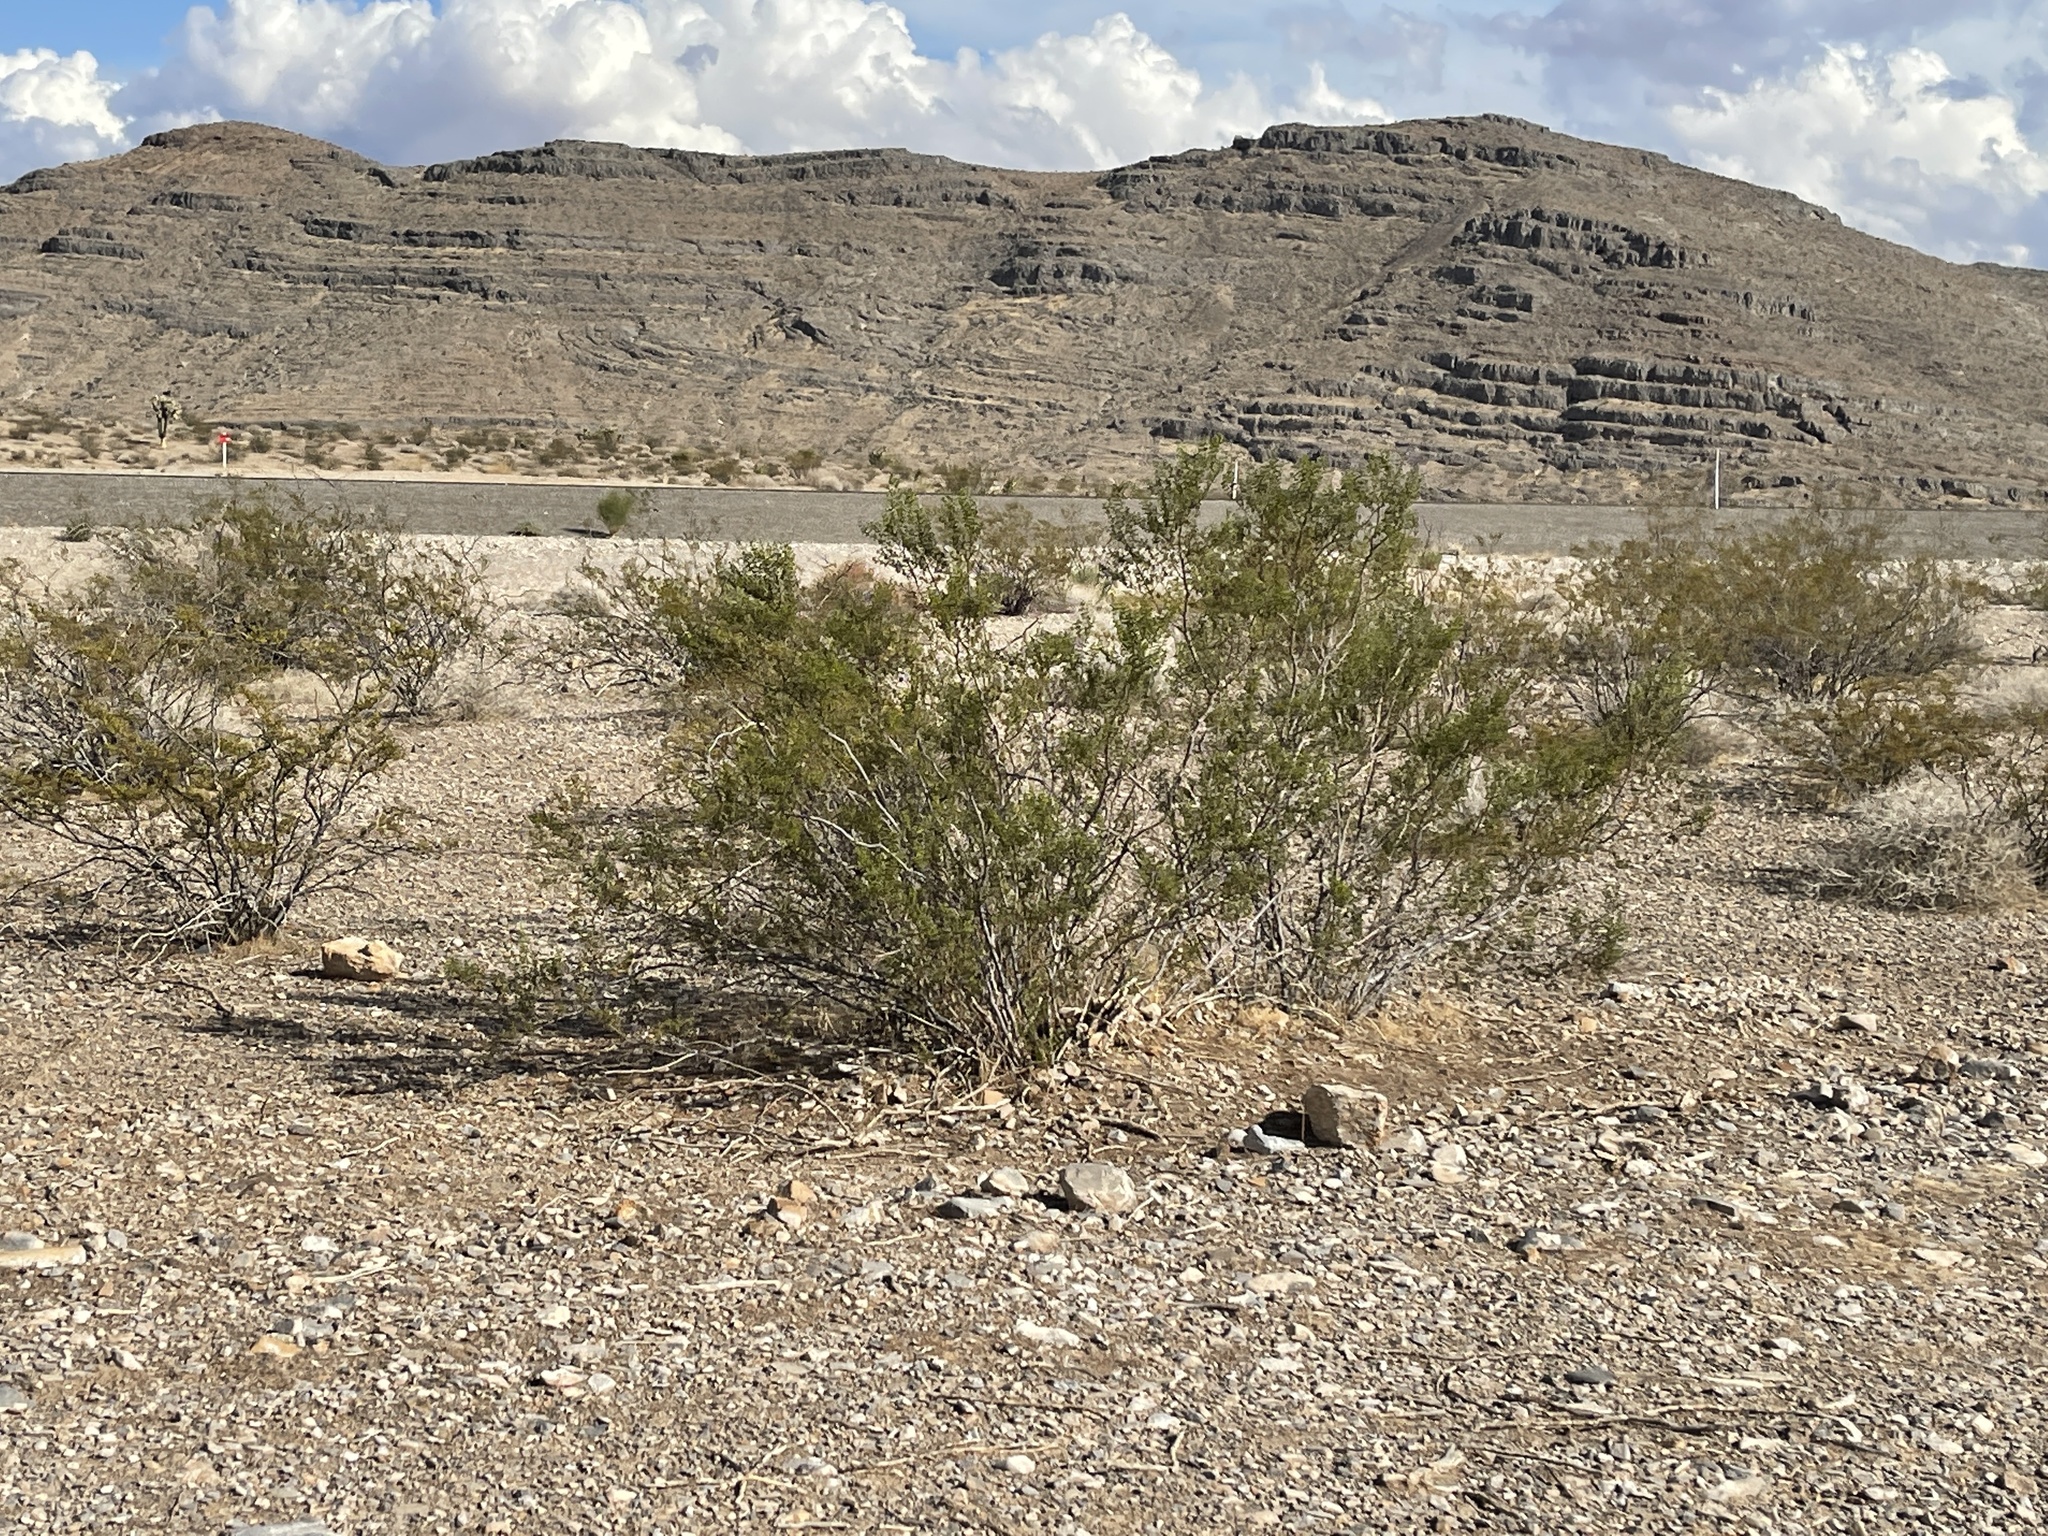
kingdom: Plantae
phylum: Tracheophyta
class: Magnoliopsida
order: Zygophyllales
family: Zygophyllaceae
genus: Larrea
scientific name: Larrea tridentata
